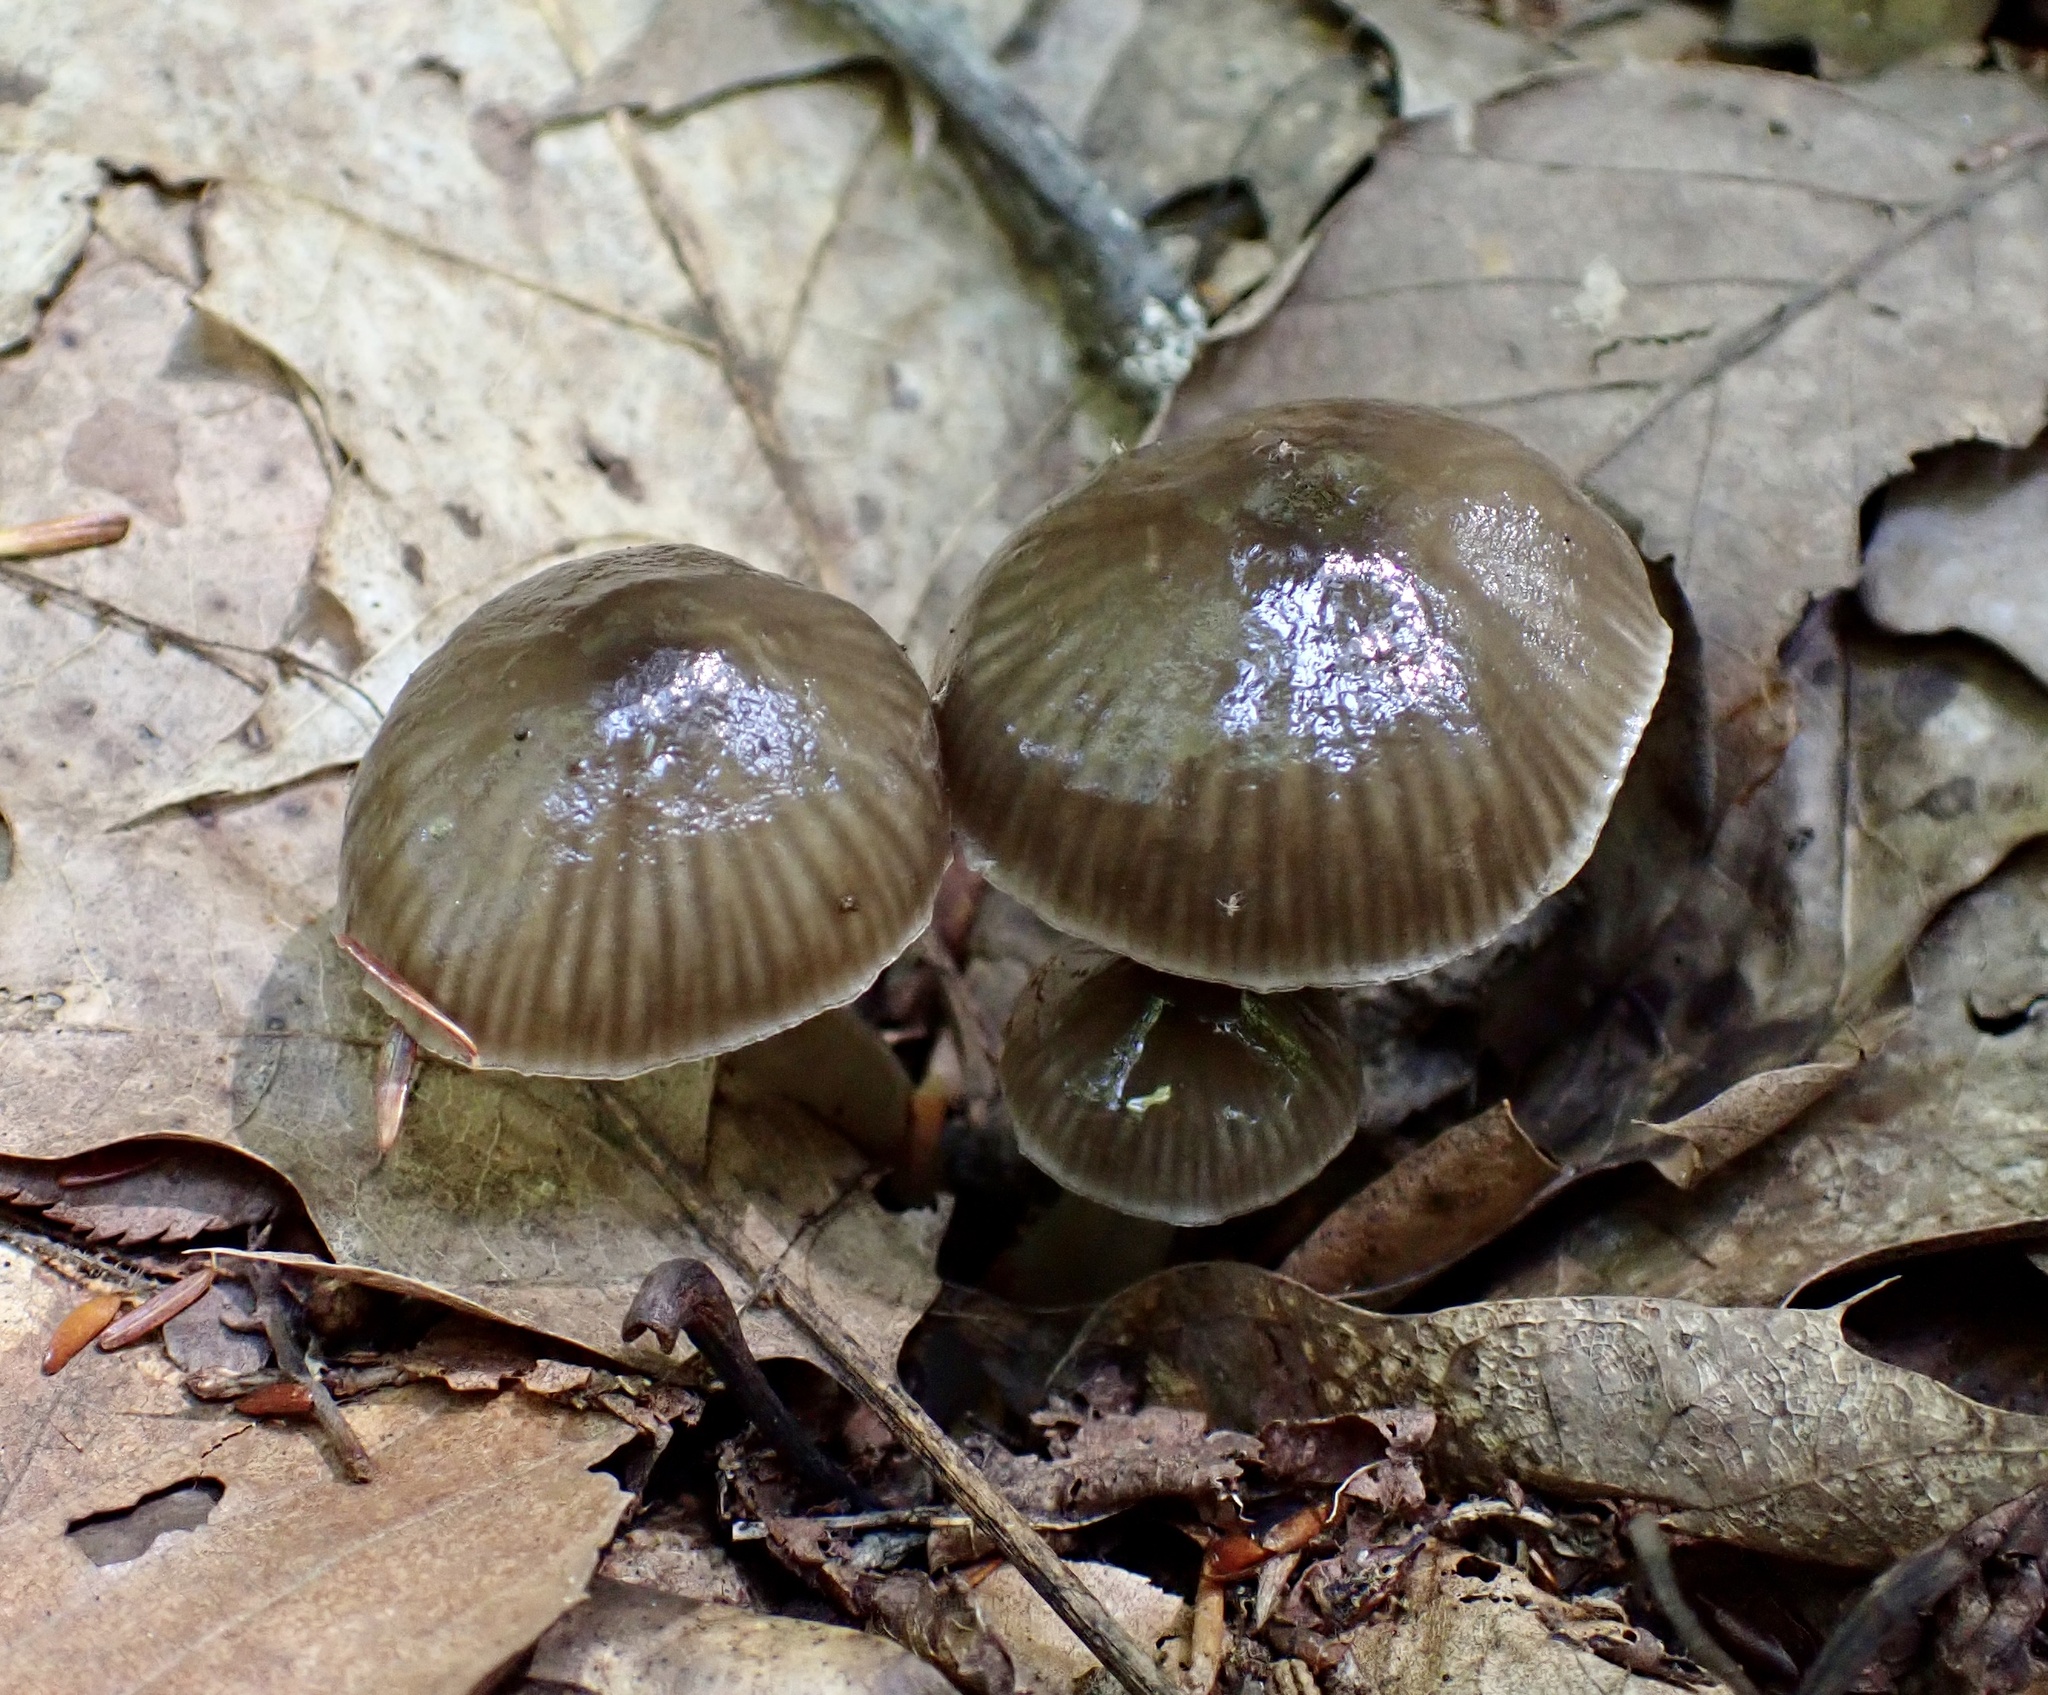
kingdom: Fungi
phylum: Basidiomycota
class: Agaricomycetes
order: Agaricales
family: Hygrophoraceae
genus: Gliophorus
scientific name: Gliophorus irrigatus
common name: Slimy waxcap
